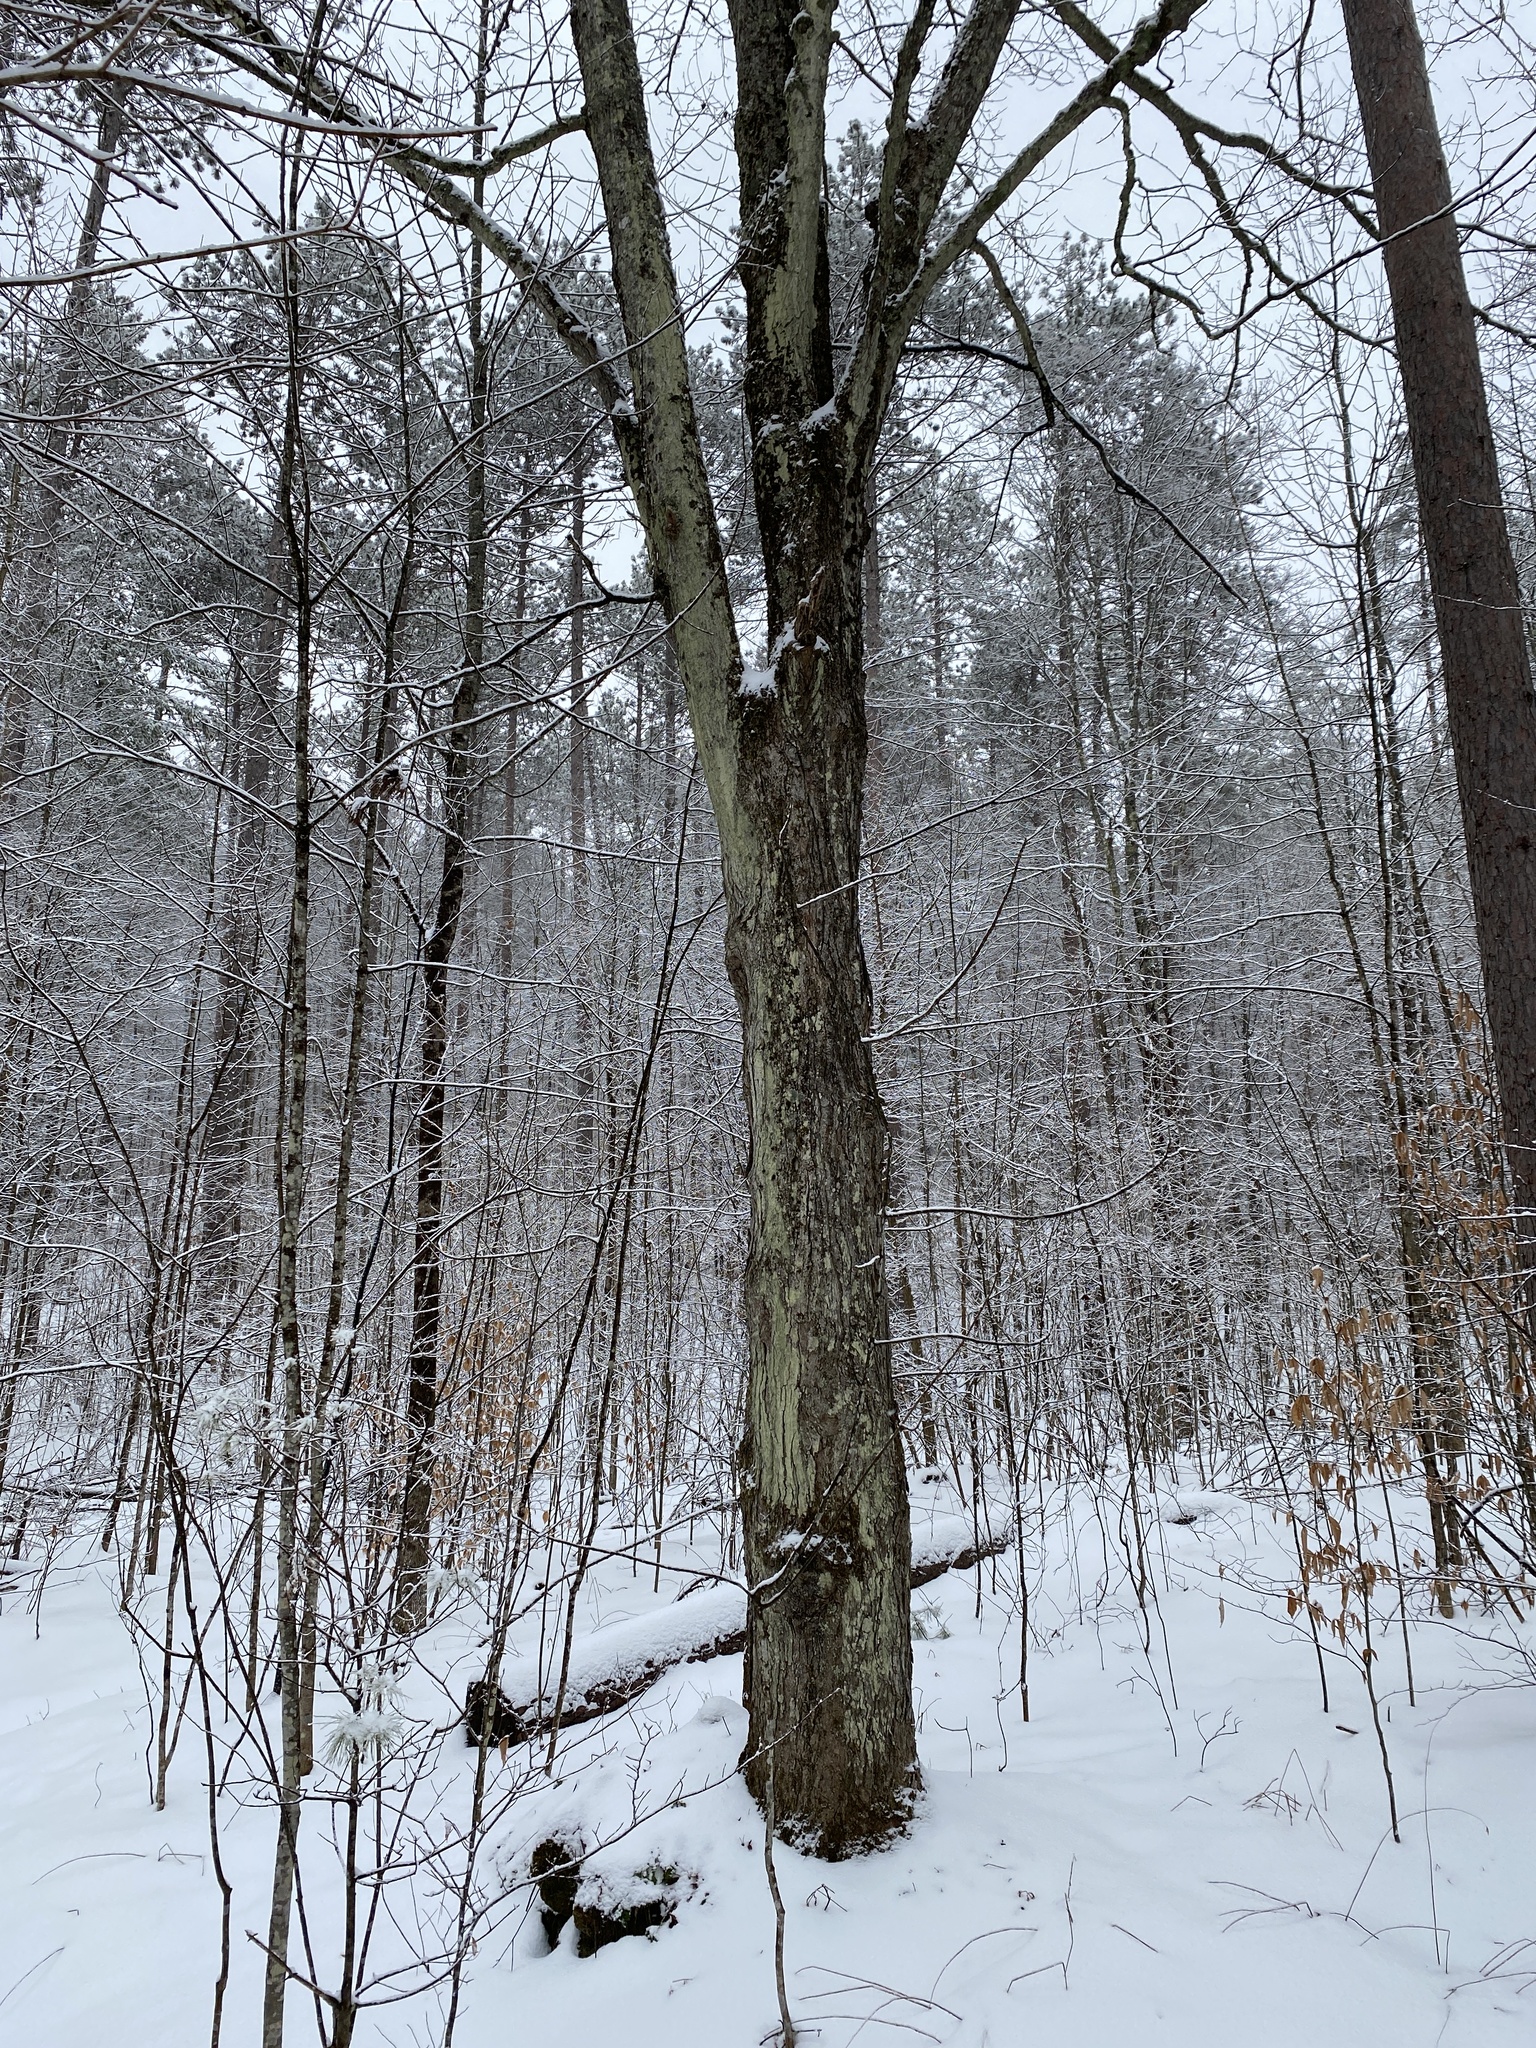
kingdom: Plantae
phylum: Tracheophyta
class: Magnoliopsida
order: Sapindales
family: Sapindaceae
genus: Acer
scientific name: Acer saccharum
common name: Sugar maple
